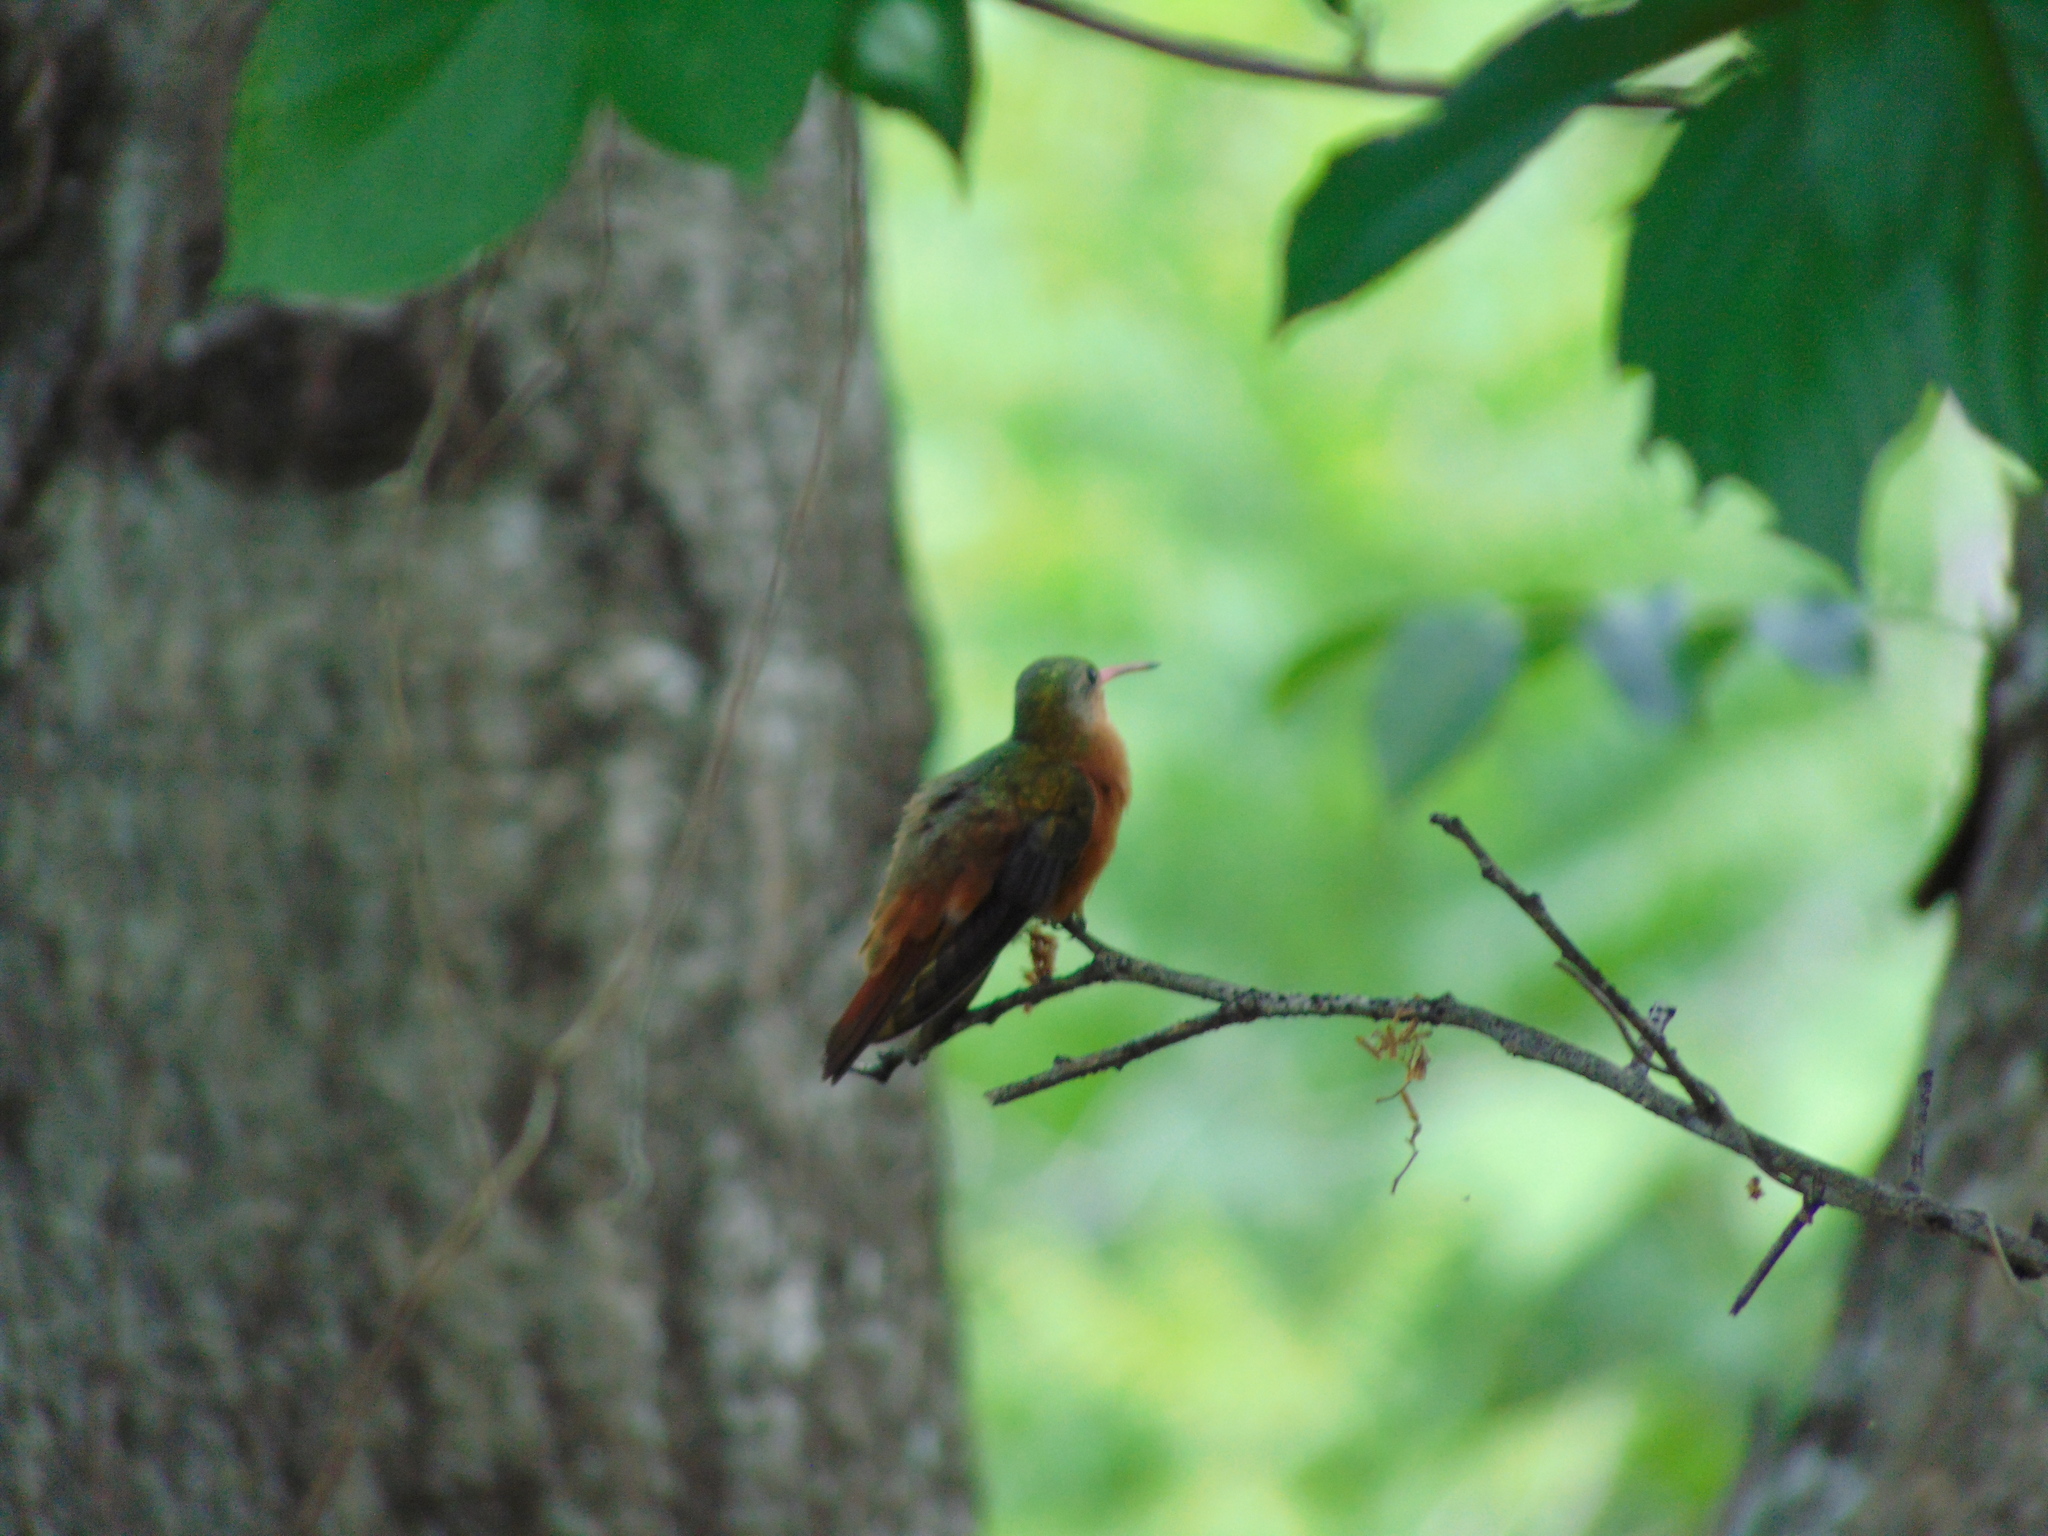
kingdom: Animalia
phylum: Chordata
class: Aves
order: Apodiformes
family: Trochilidae
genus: Amazilia
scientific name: Amazilia rutila
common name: Cinnamon hummingbird
